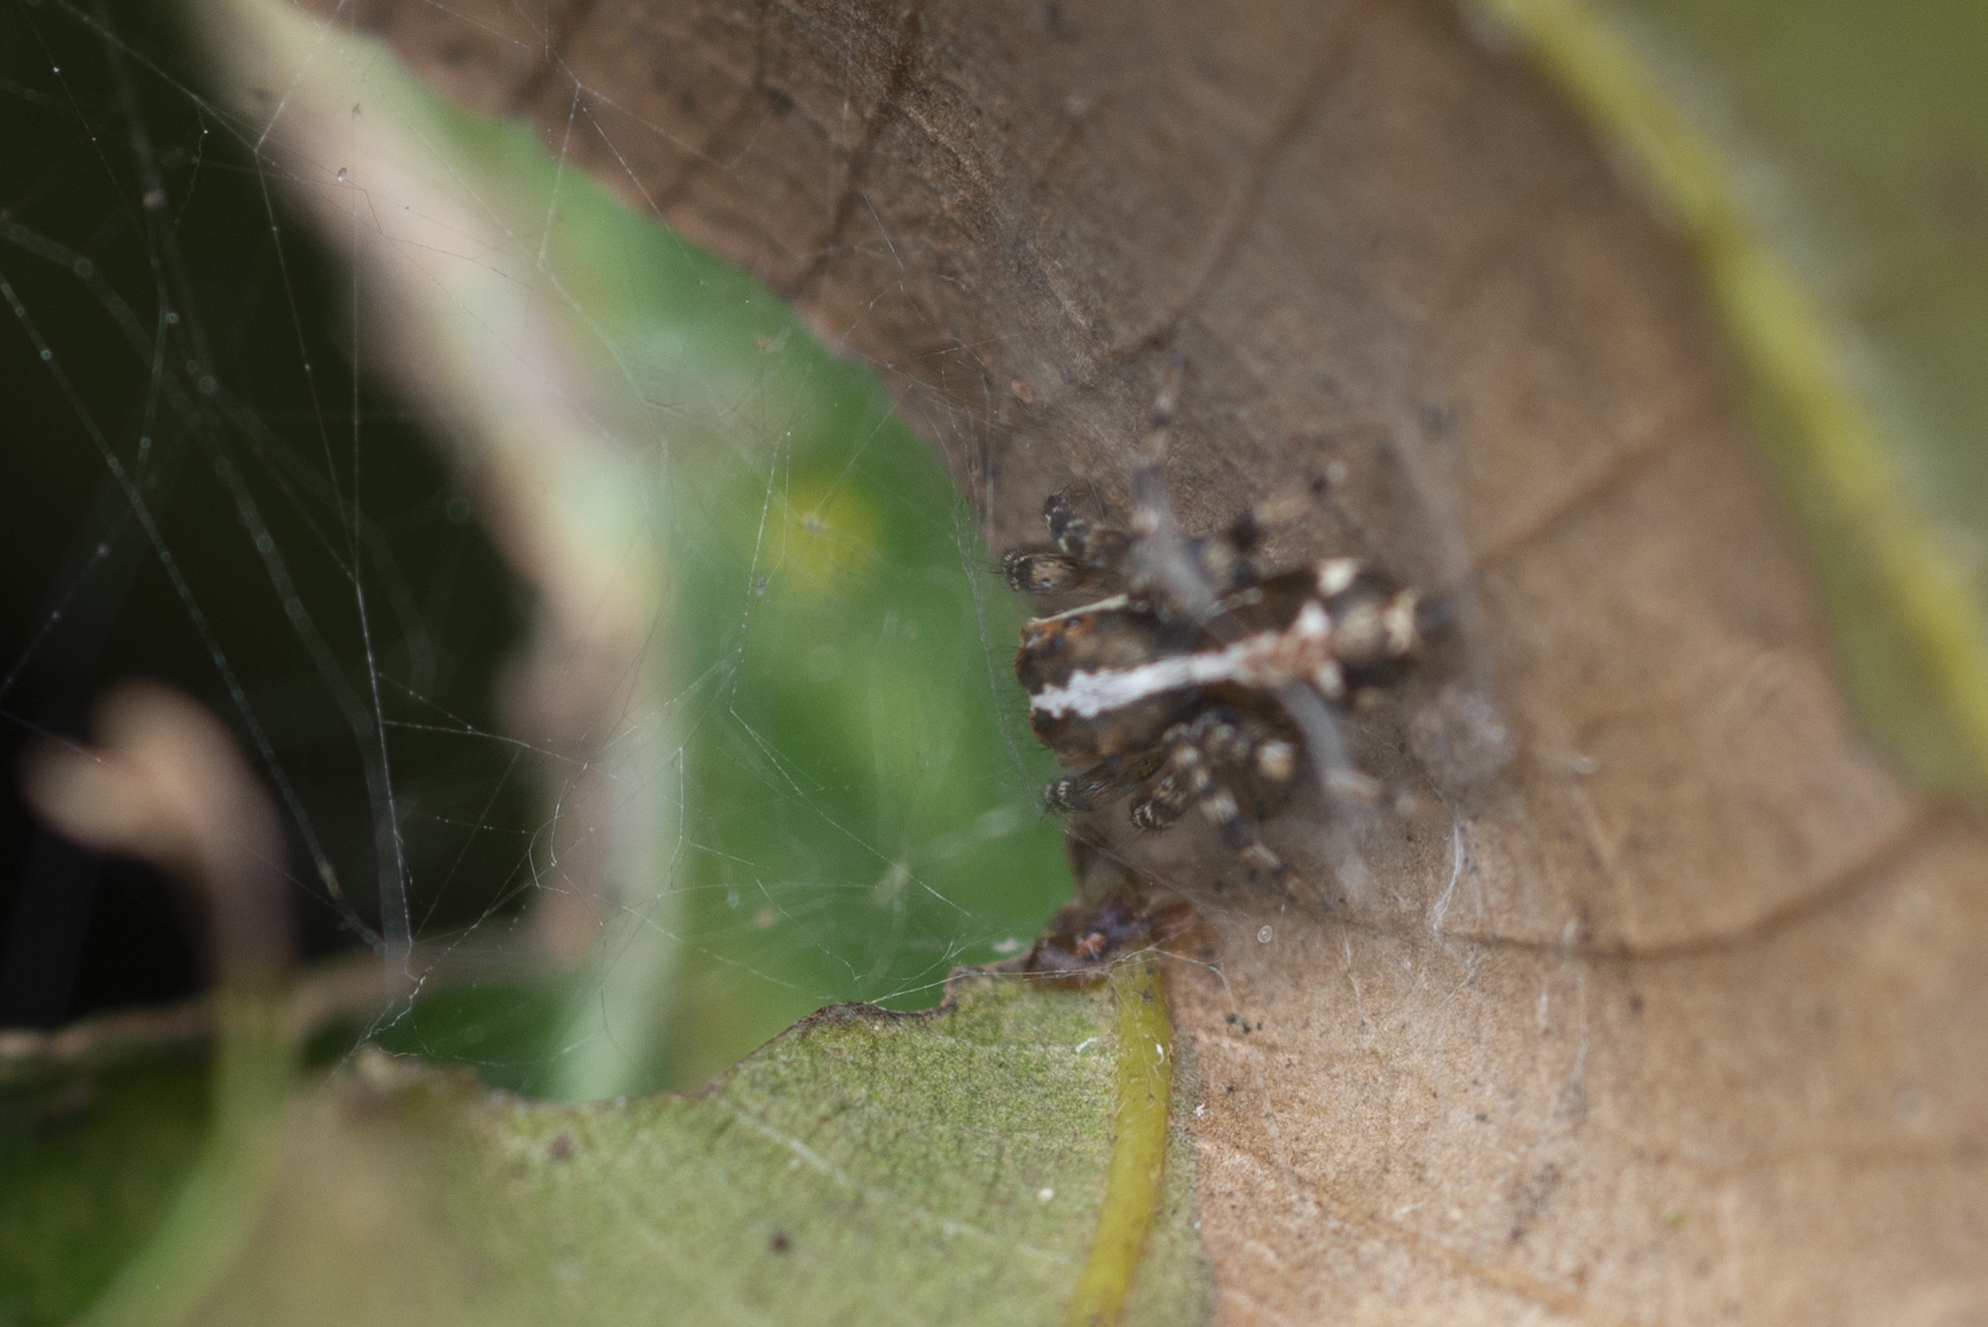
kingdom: Animalia
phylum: Arthropoda
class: Arachnida
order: Araneae
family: Salticidae
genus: Thyene
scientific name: Thyene orientalis
